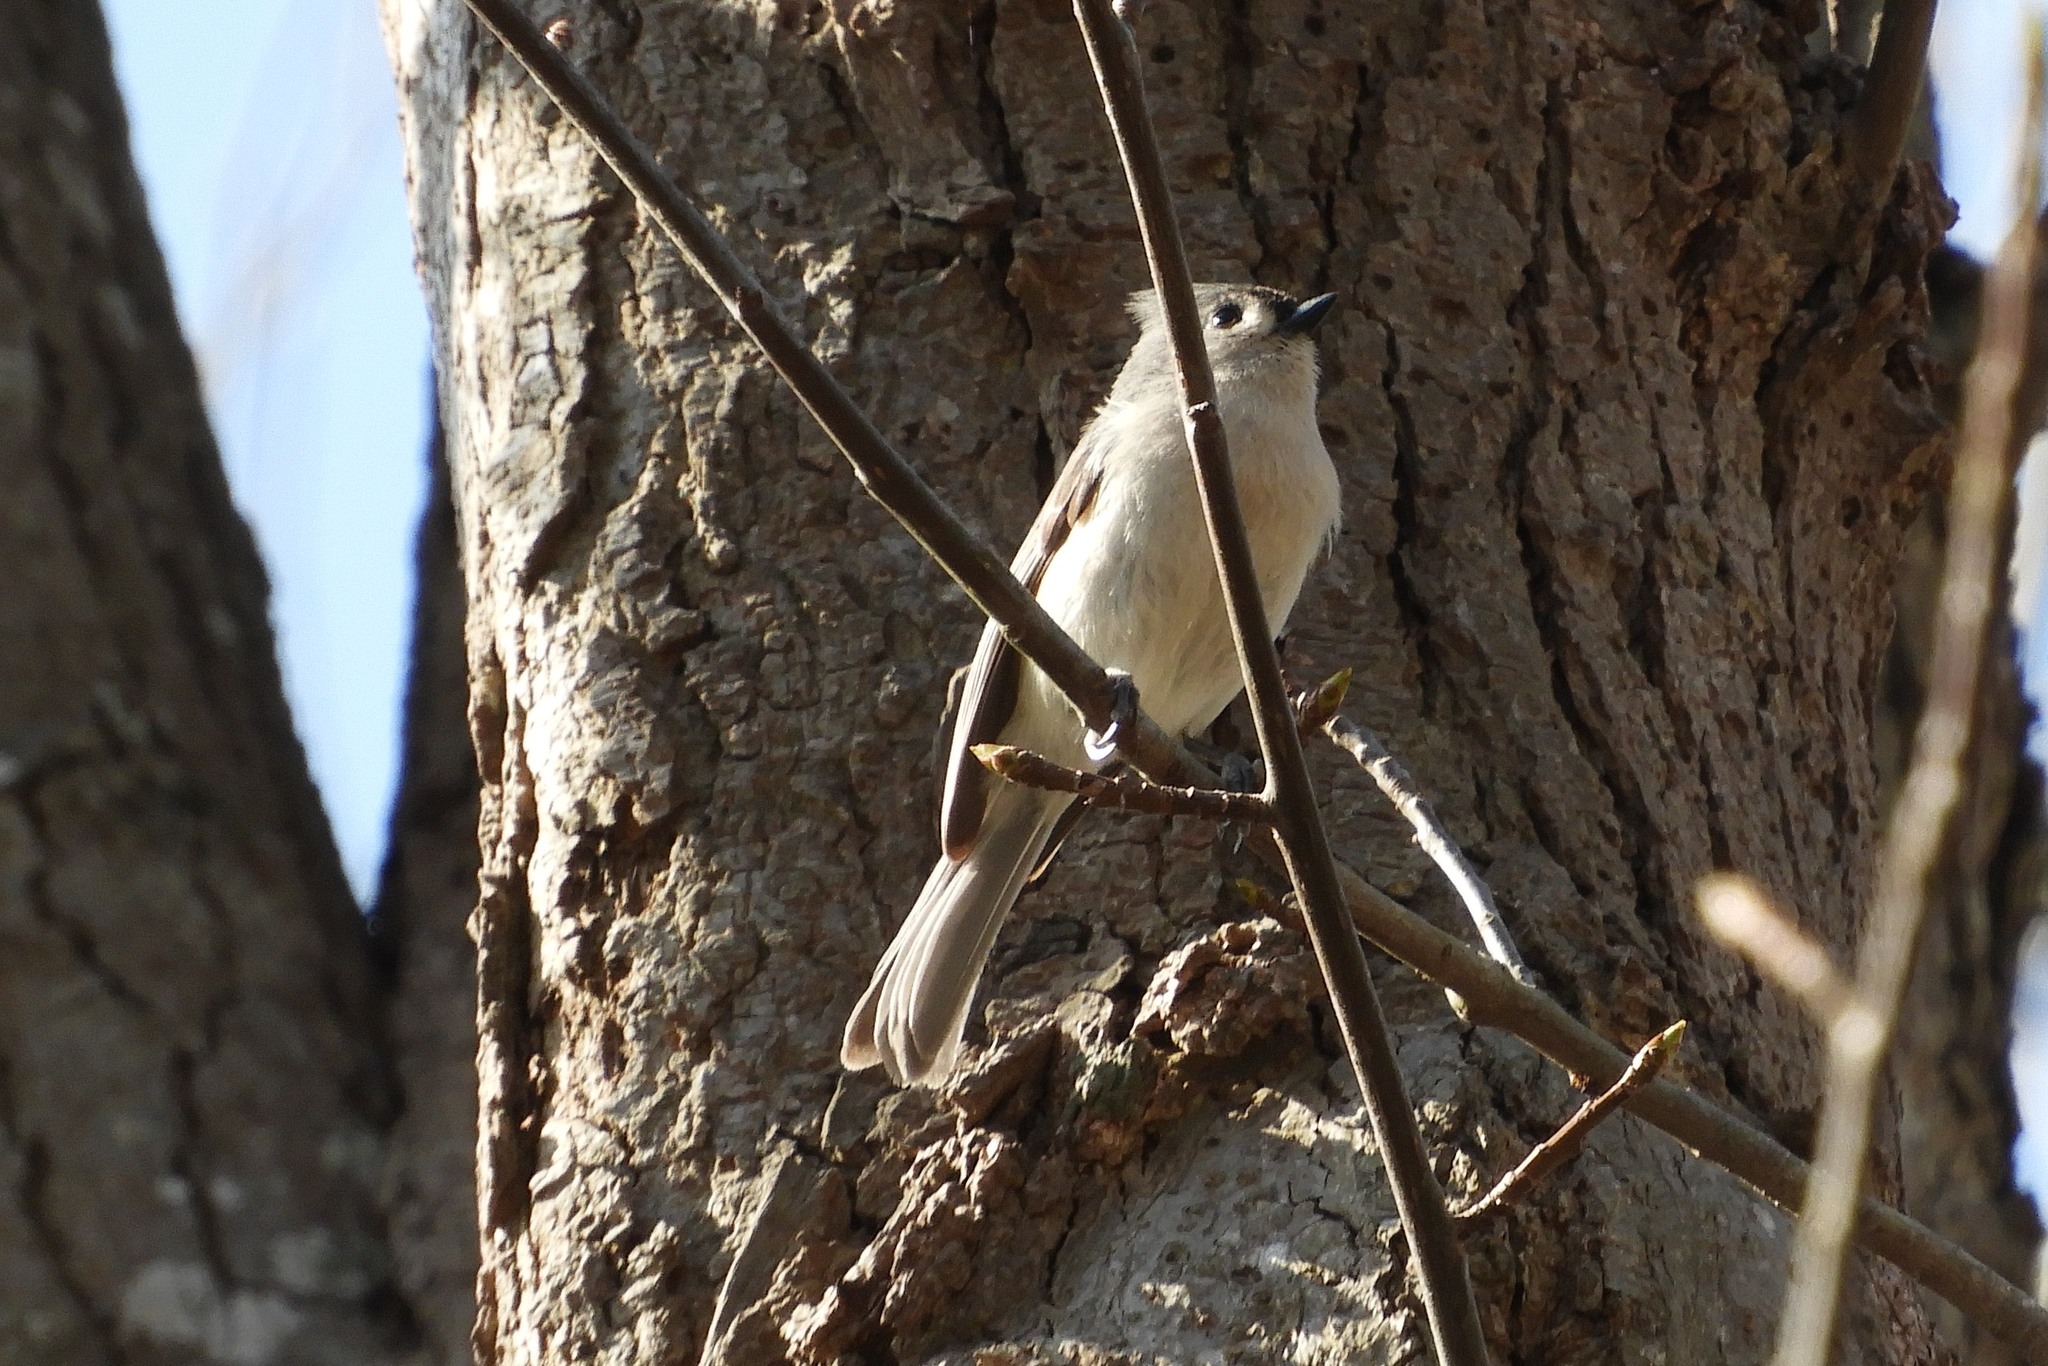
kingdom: Animalia
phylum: Chordata
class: Aves
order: Passeriformes
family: Paridae
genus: Baeolophus
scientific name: Baeolophus bicolor
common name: Tufted titmouse
